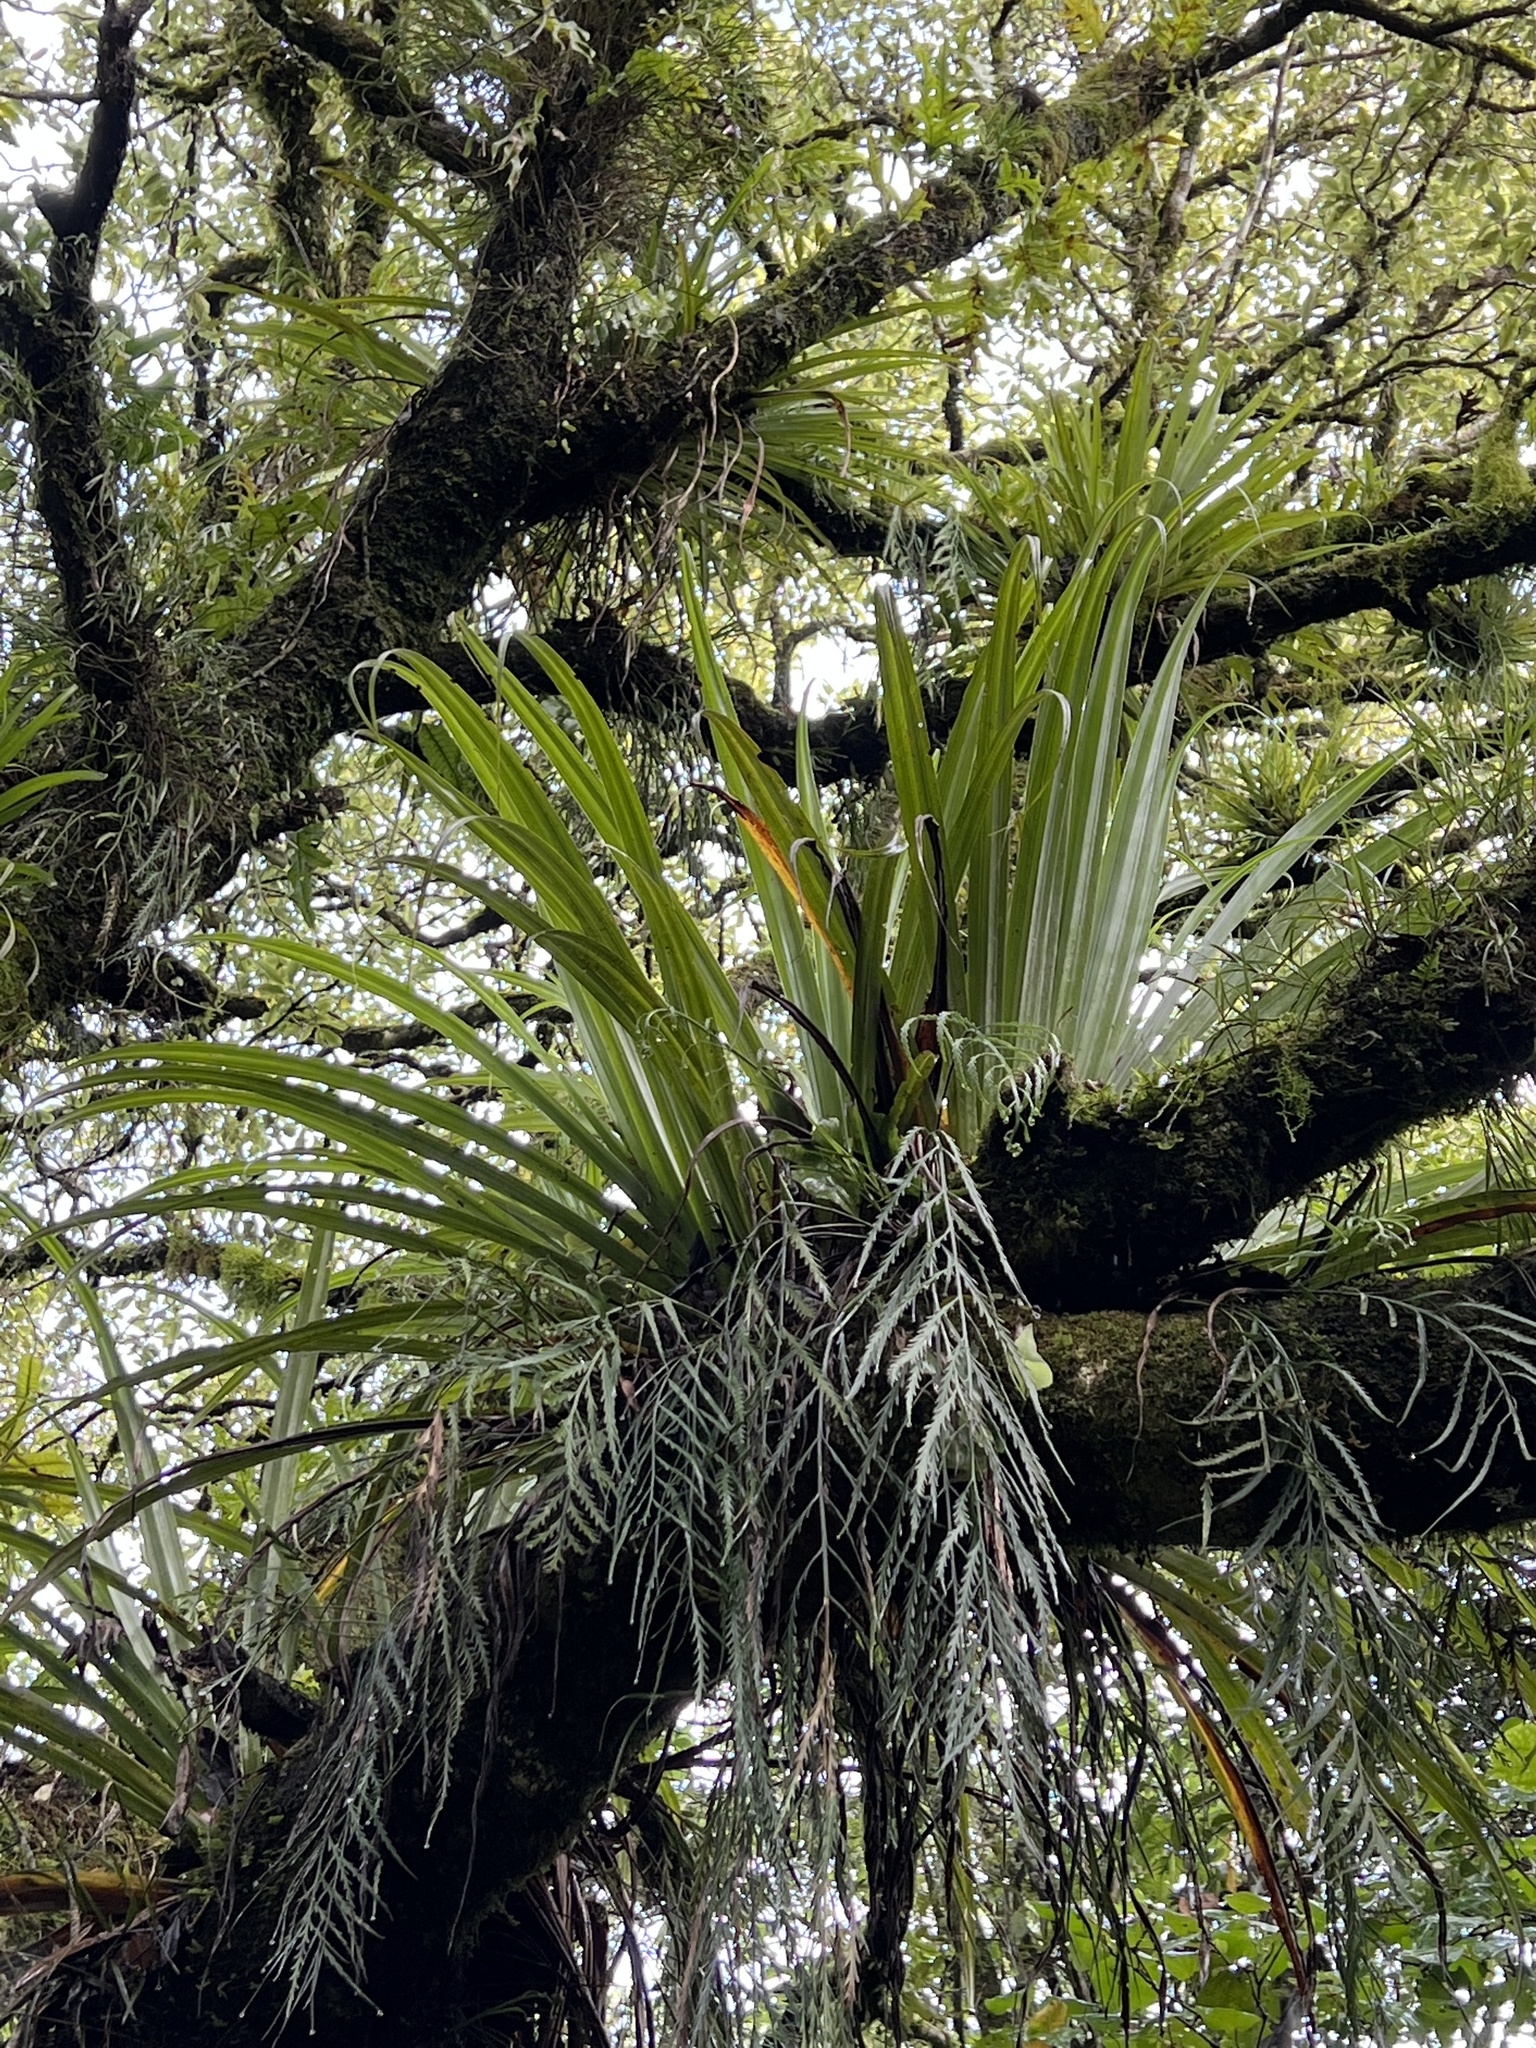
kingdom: Plantae
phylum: Tracheophyta
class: Liliopsida
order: Asparagales
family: Asteliaceae
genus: Astelia
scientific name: Astelia microsperma
